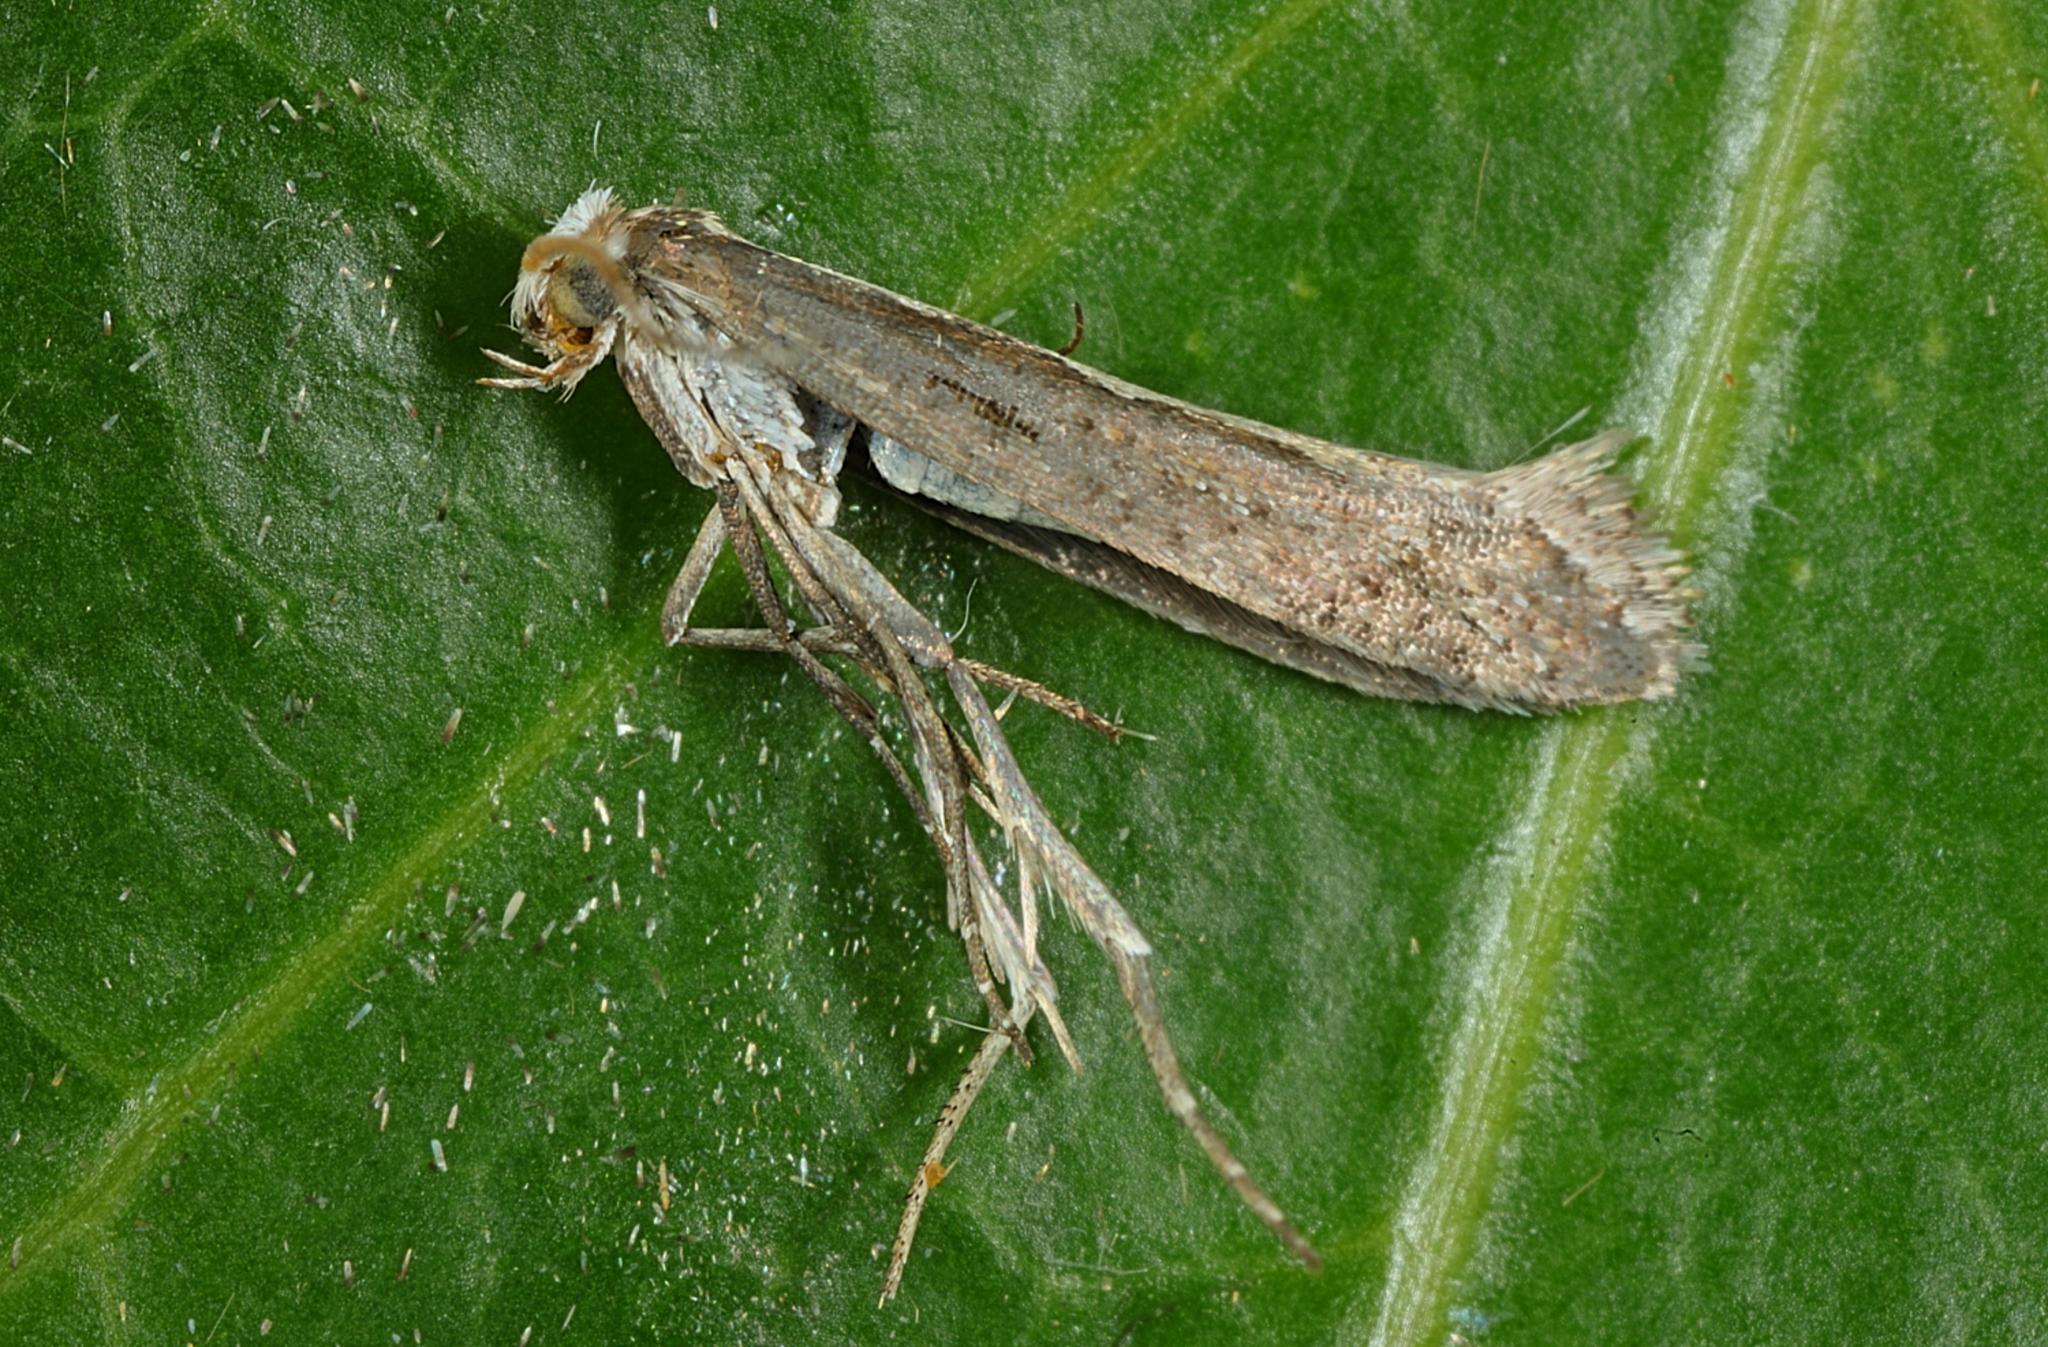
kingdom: Animalia
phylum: Arthropoda
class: Insecta
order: Lepidoptera
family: Plutellidae
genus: Plutella
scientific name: Plutella xylostella
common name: Diamond-back moth
